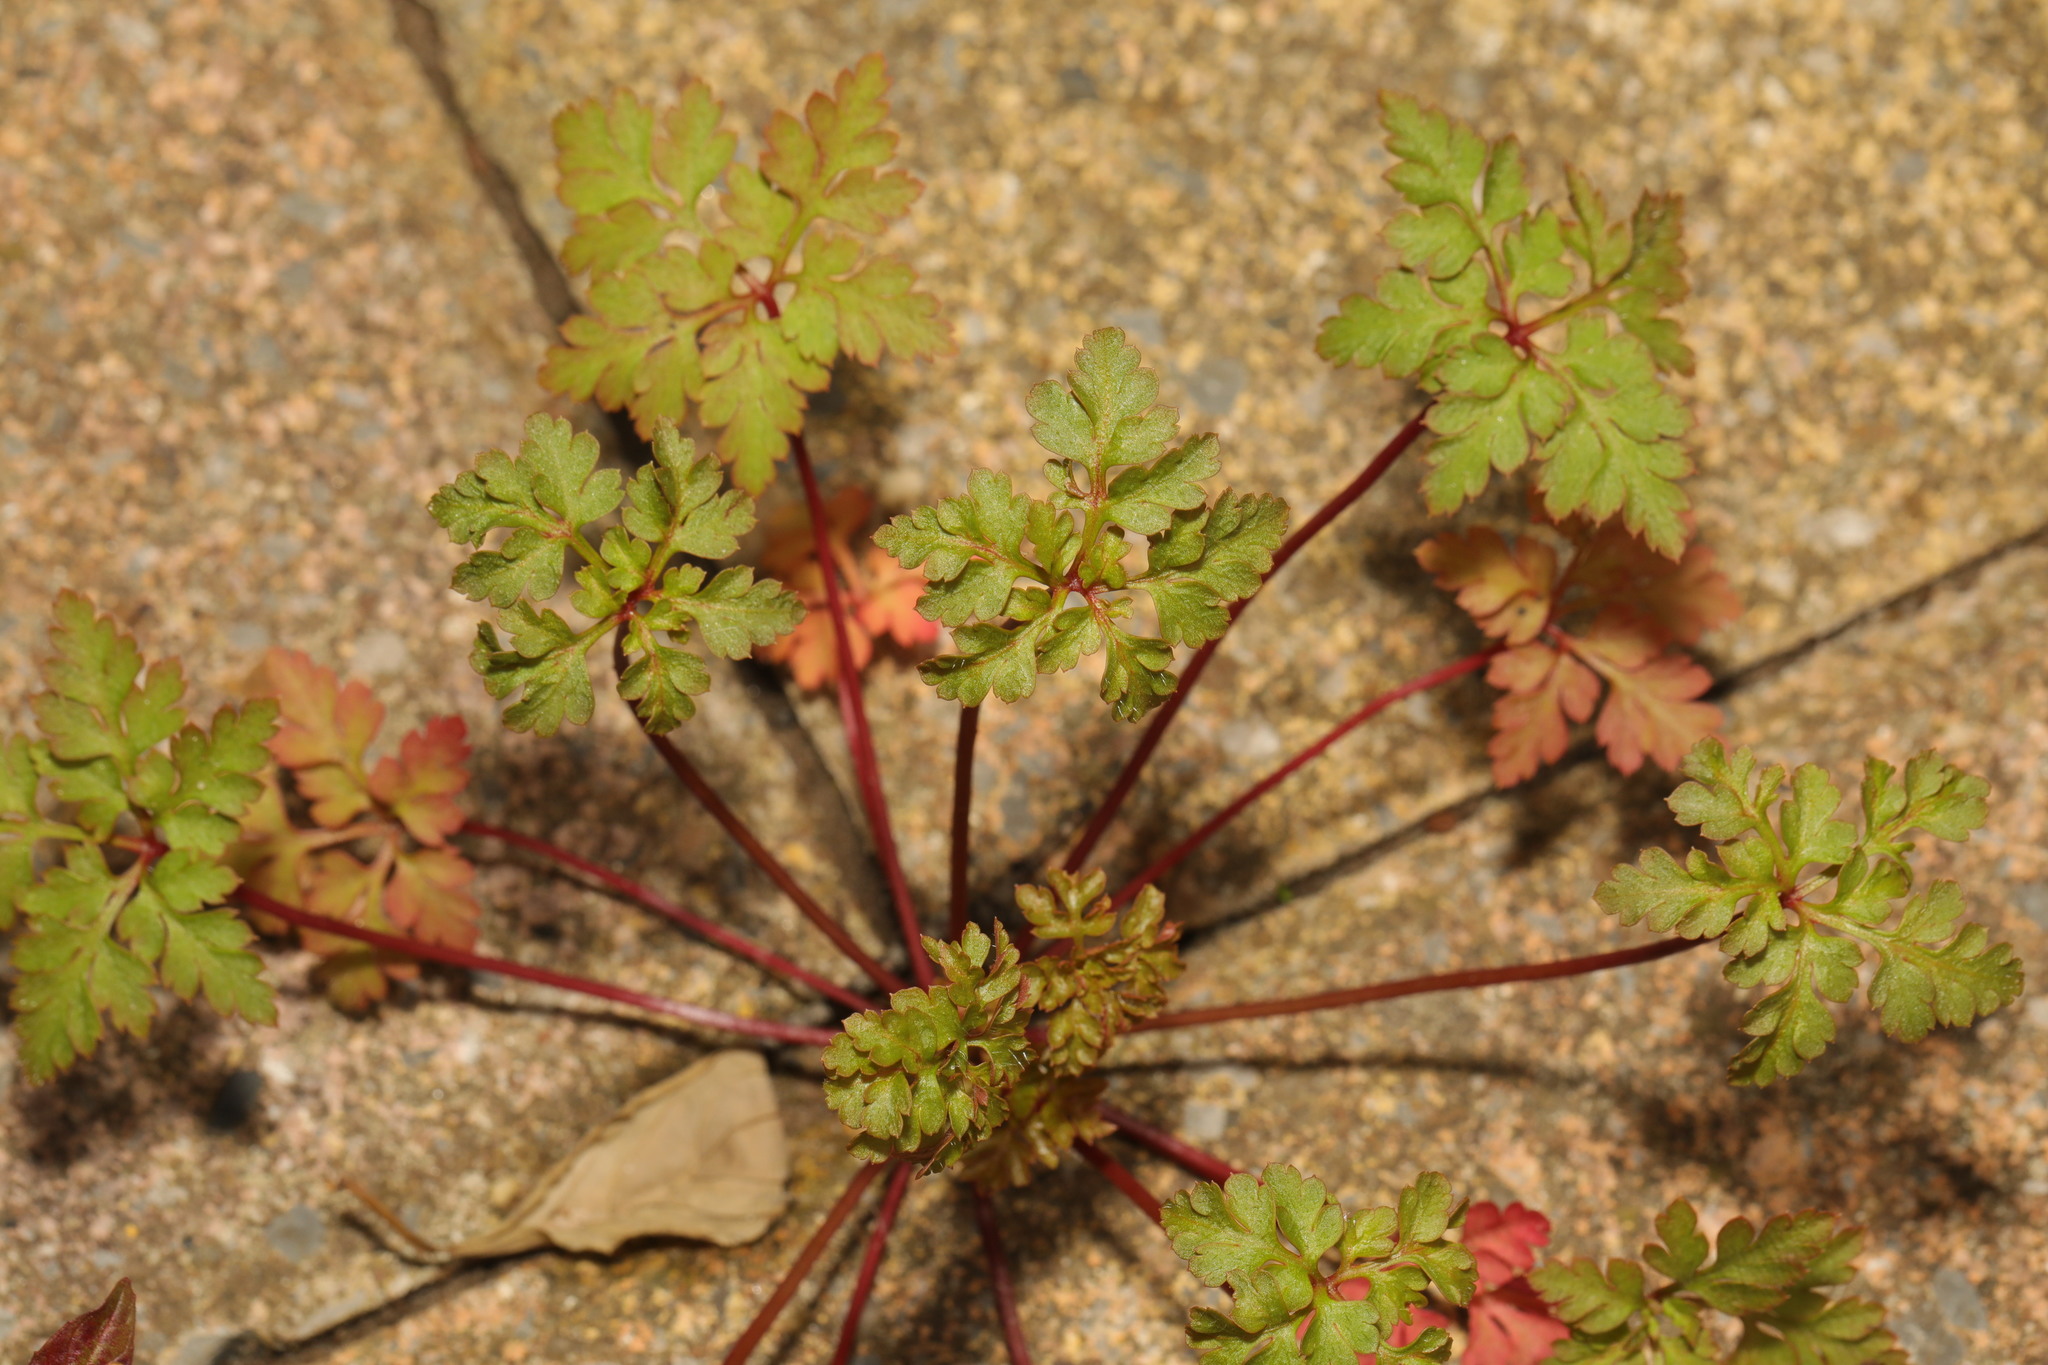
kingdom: Plantae
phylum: Tracheophyta
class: Magnoliopsida
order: Geraniales
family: Geraniaceae
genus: Geranium
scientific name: Geranium robertianum
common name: Herb-robert
